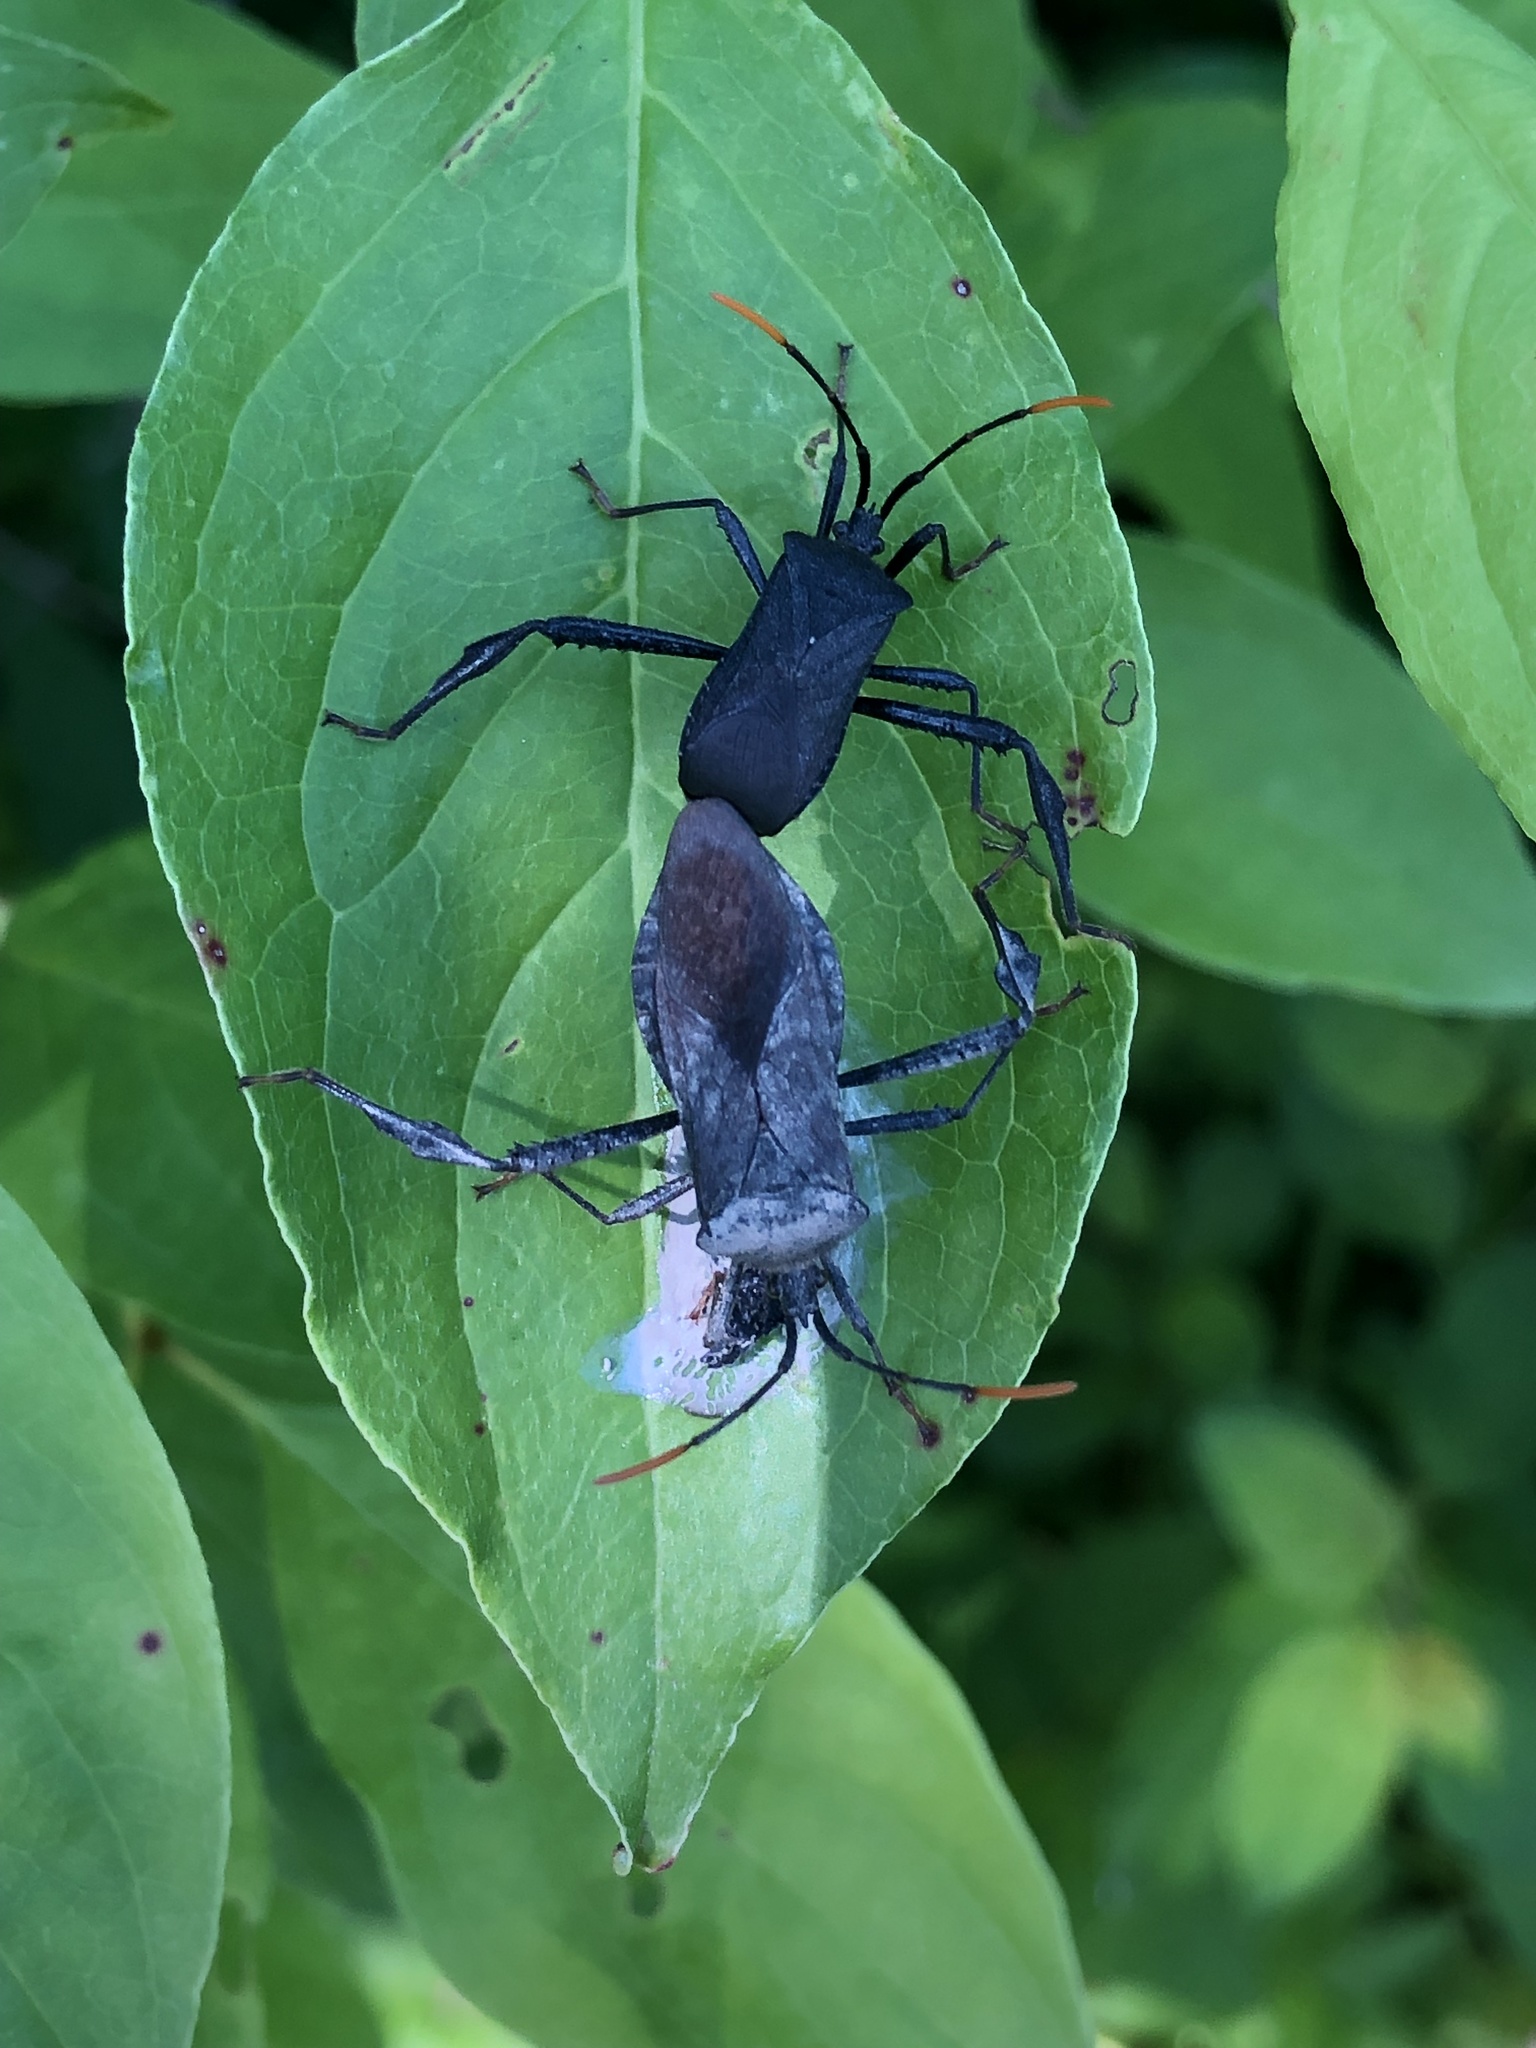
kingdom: Animalia
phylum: Arthropoda
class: Insecta
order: Hemiptera
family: Coreidae
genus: Acanthocephala
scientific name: Acanthocephala terminalis
